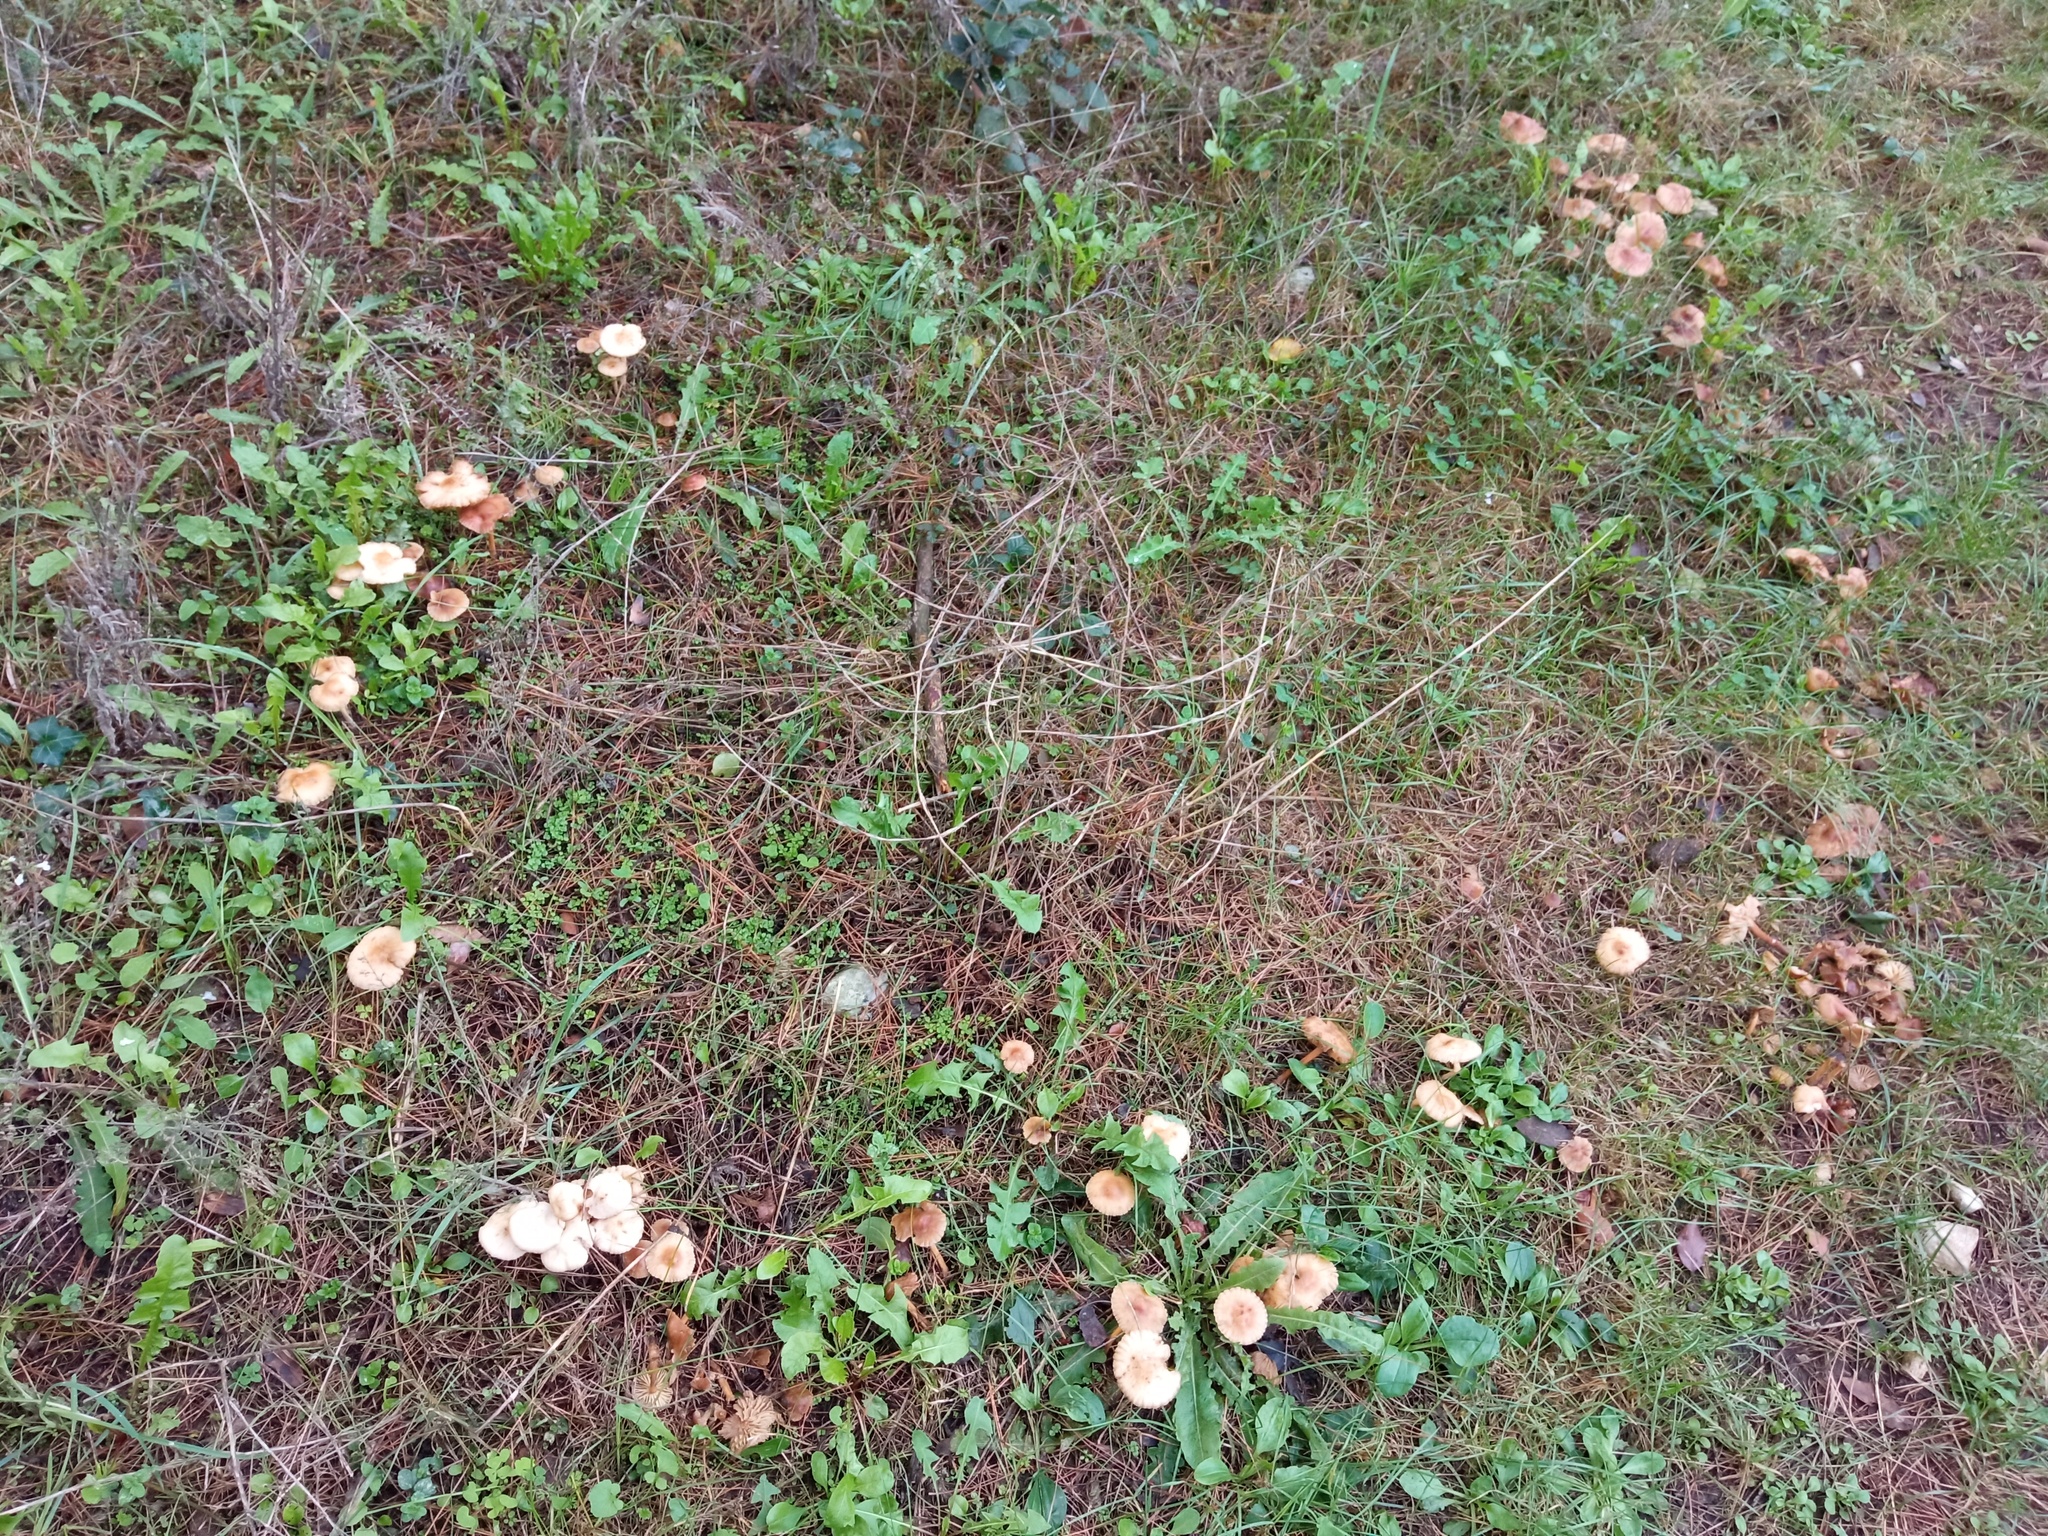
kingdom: Fungi
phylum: Basidiomycota
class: Agaricomycetes
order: Agaricales
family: Marasmiaceae
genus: Marasmius
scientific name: Marasmius oreades
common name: Fairy ring champignon
